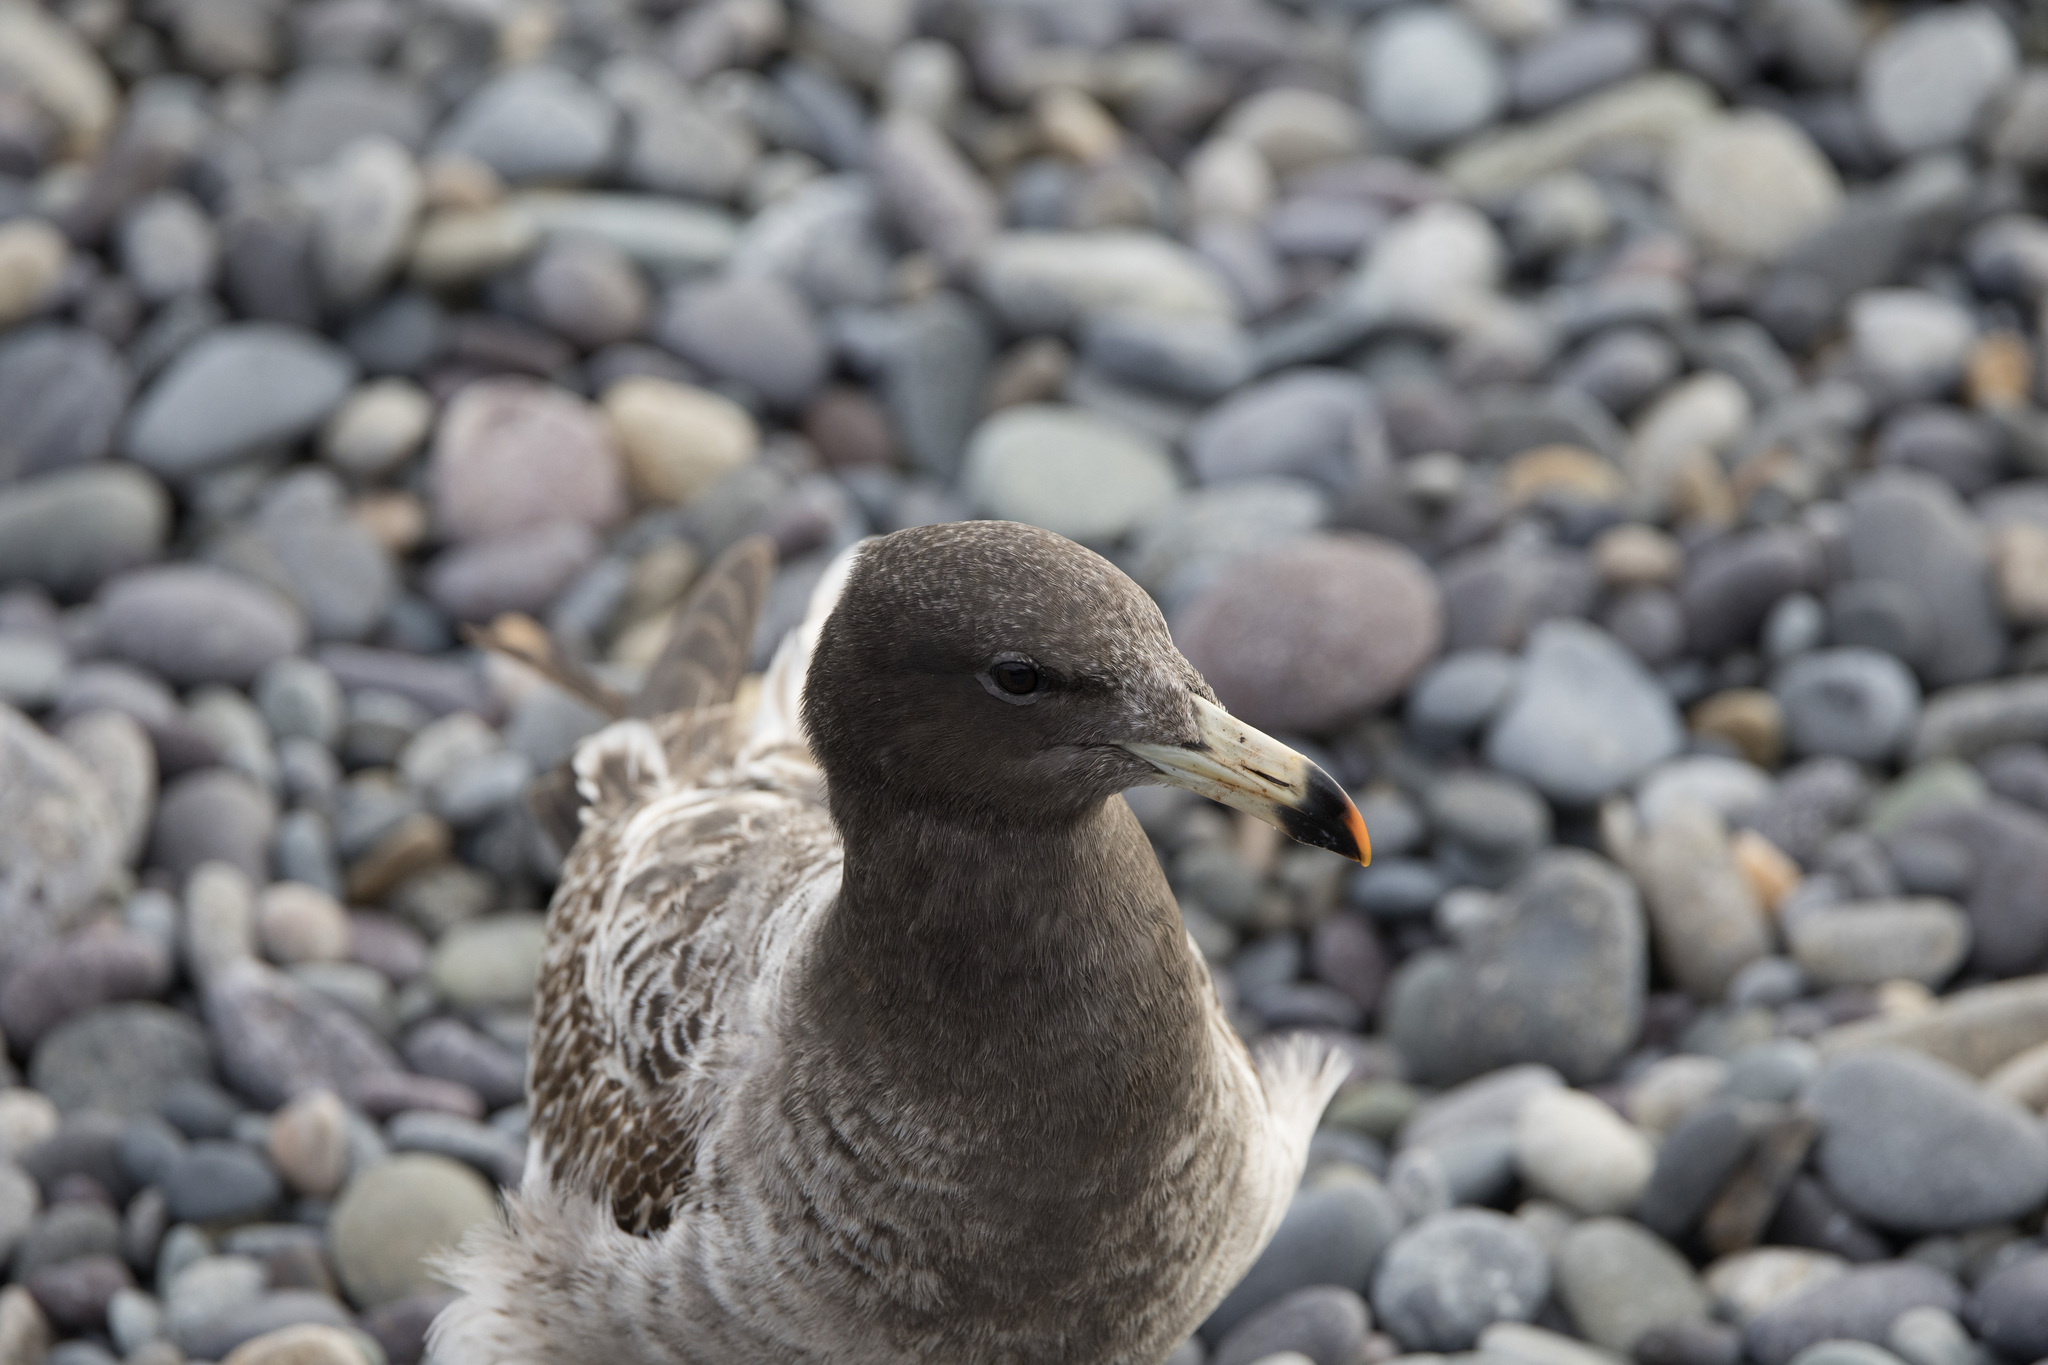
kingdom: Animalia
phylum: Chordata
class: Aves
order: Charadriiformes
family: Laridae
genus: Larus
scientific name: Larus belcheri
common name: Belcher's gull
